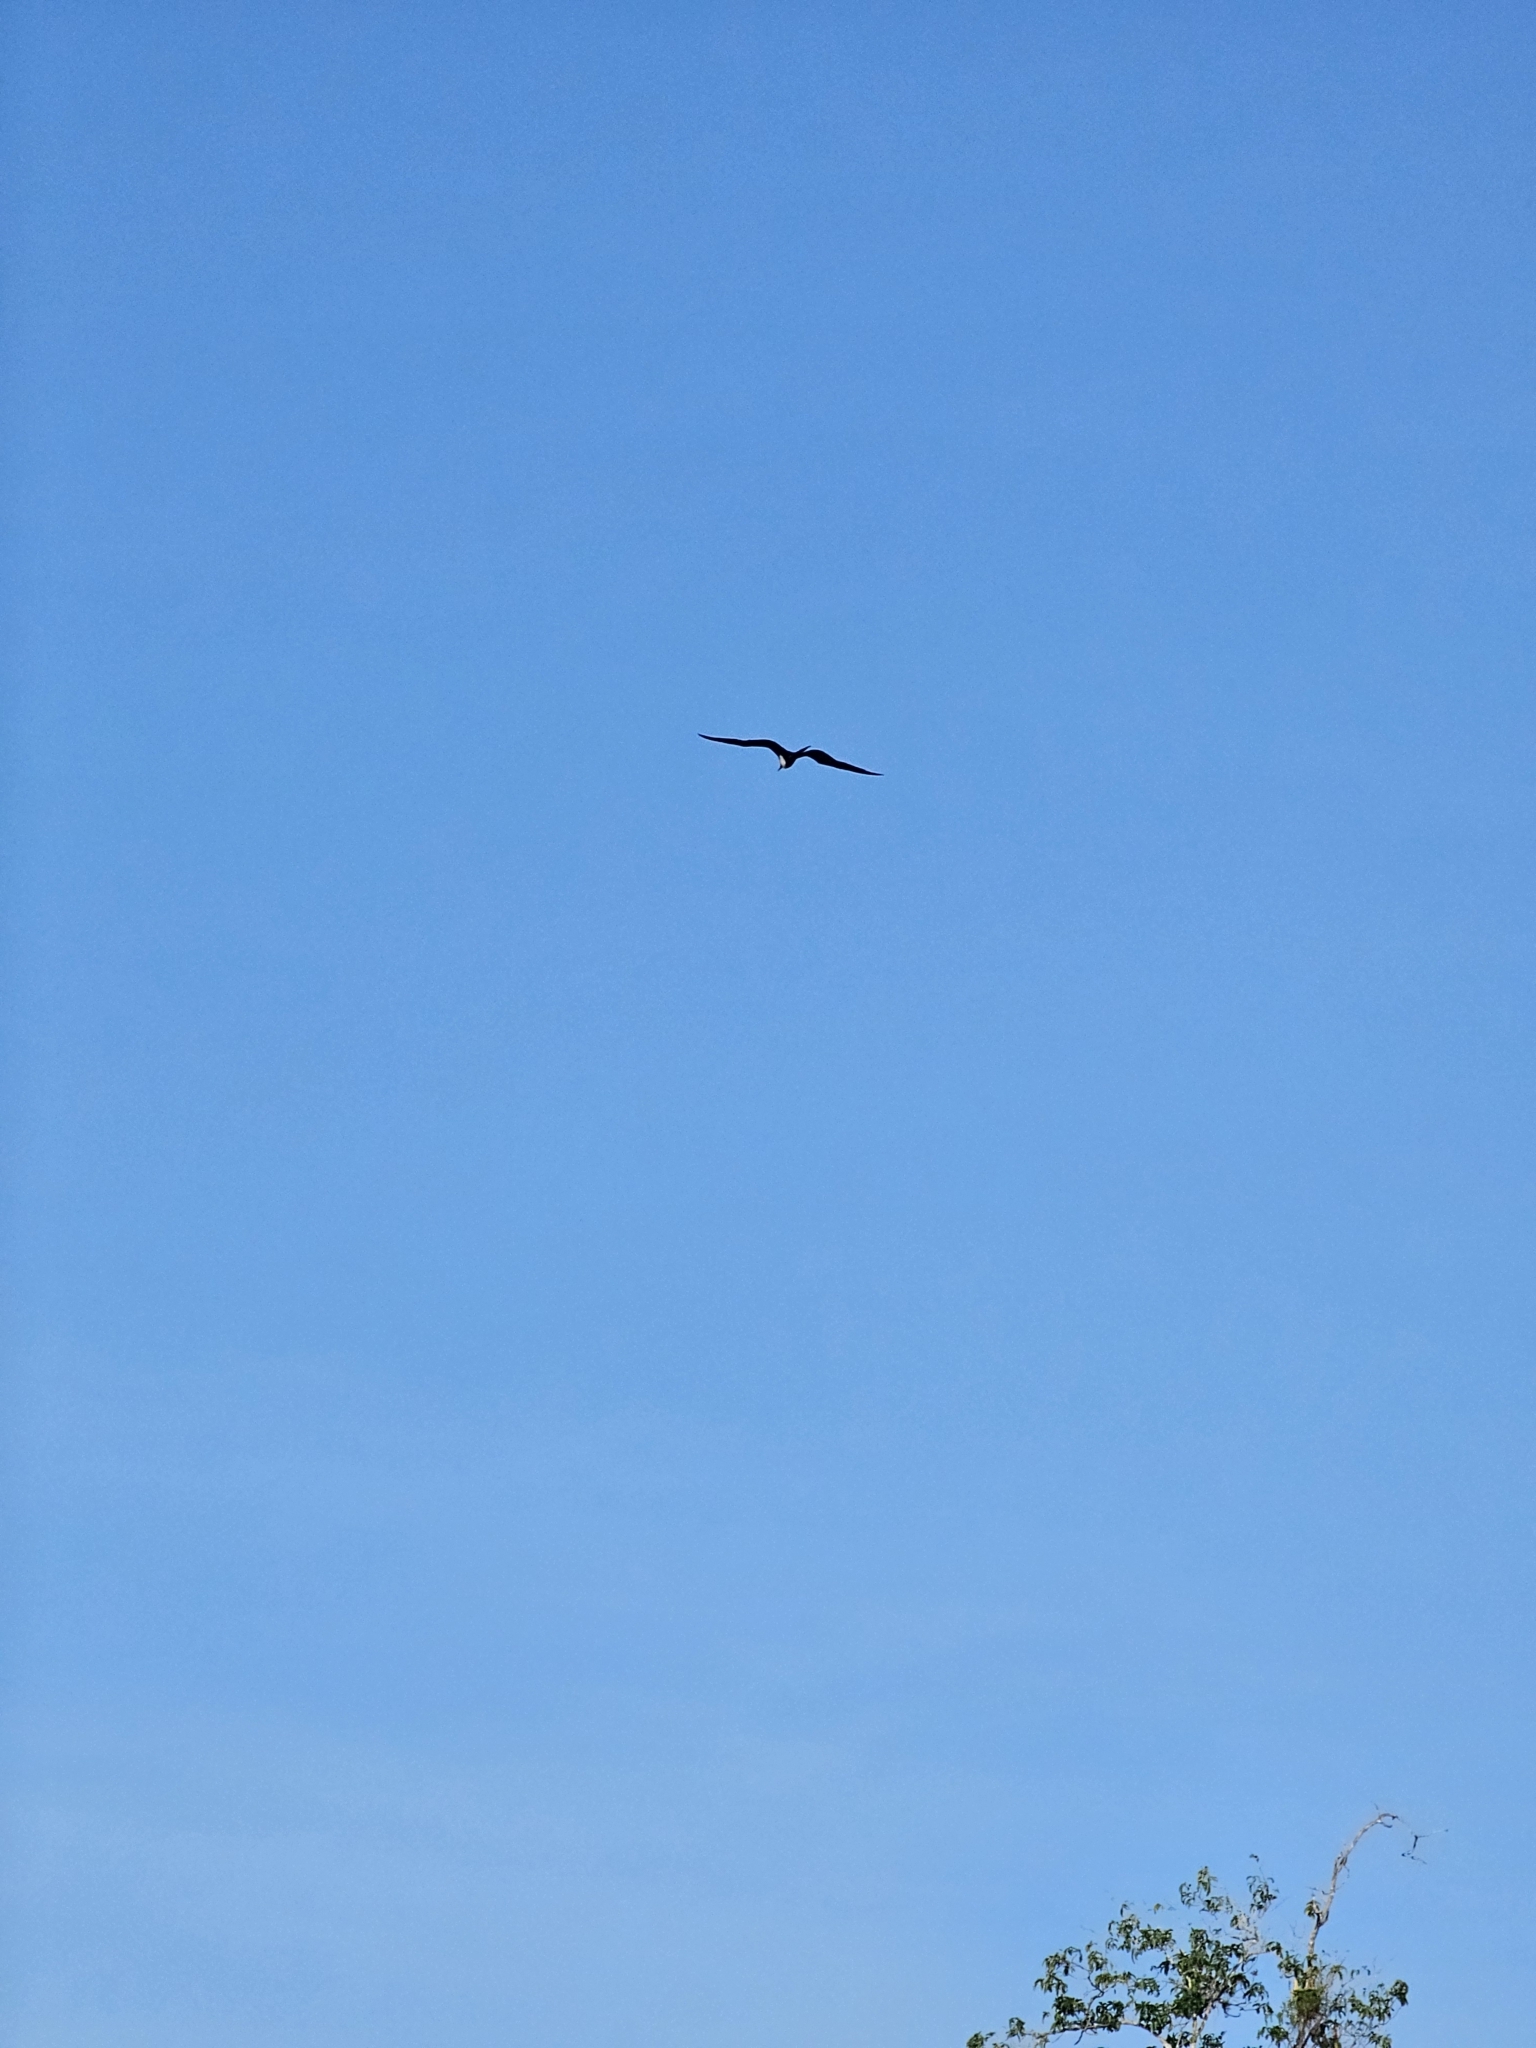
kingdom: Animalia
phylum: Chordata
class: Aves
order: Suliformes
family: Fregatidae
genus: Fregata
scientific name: Fregata magnificens
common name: Magnificent frigatebird
